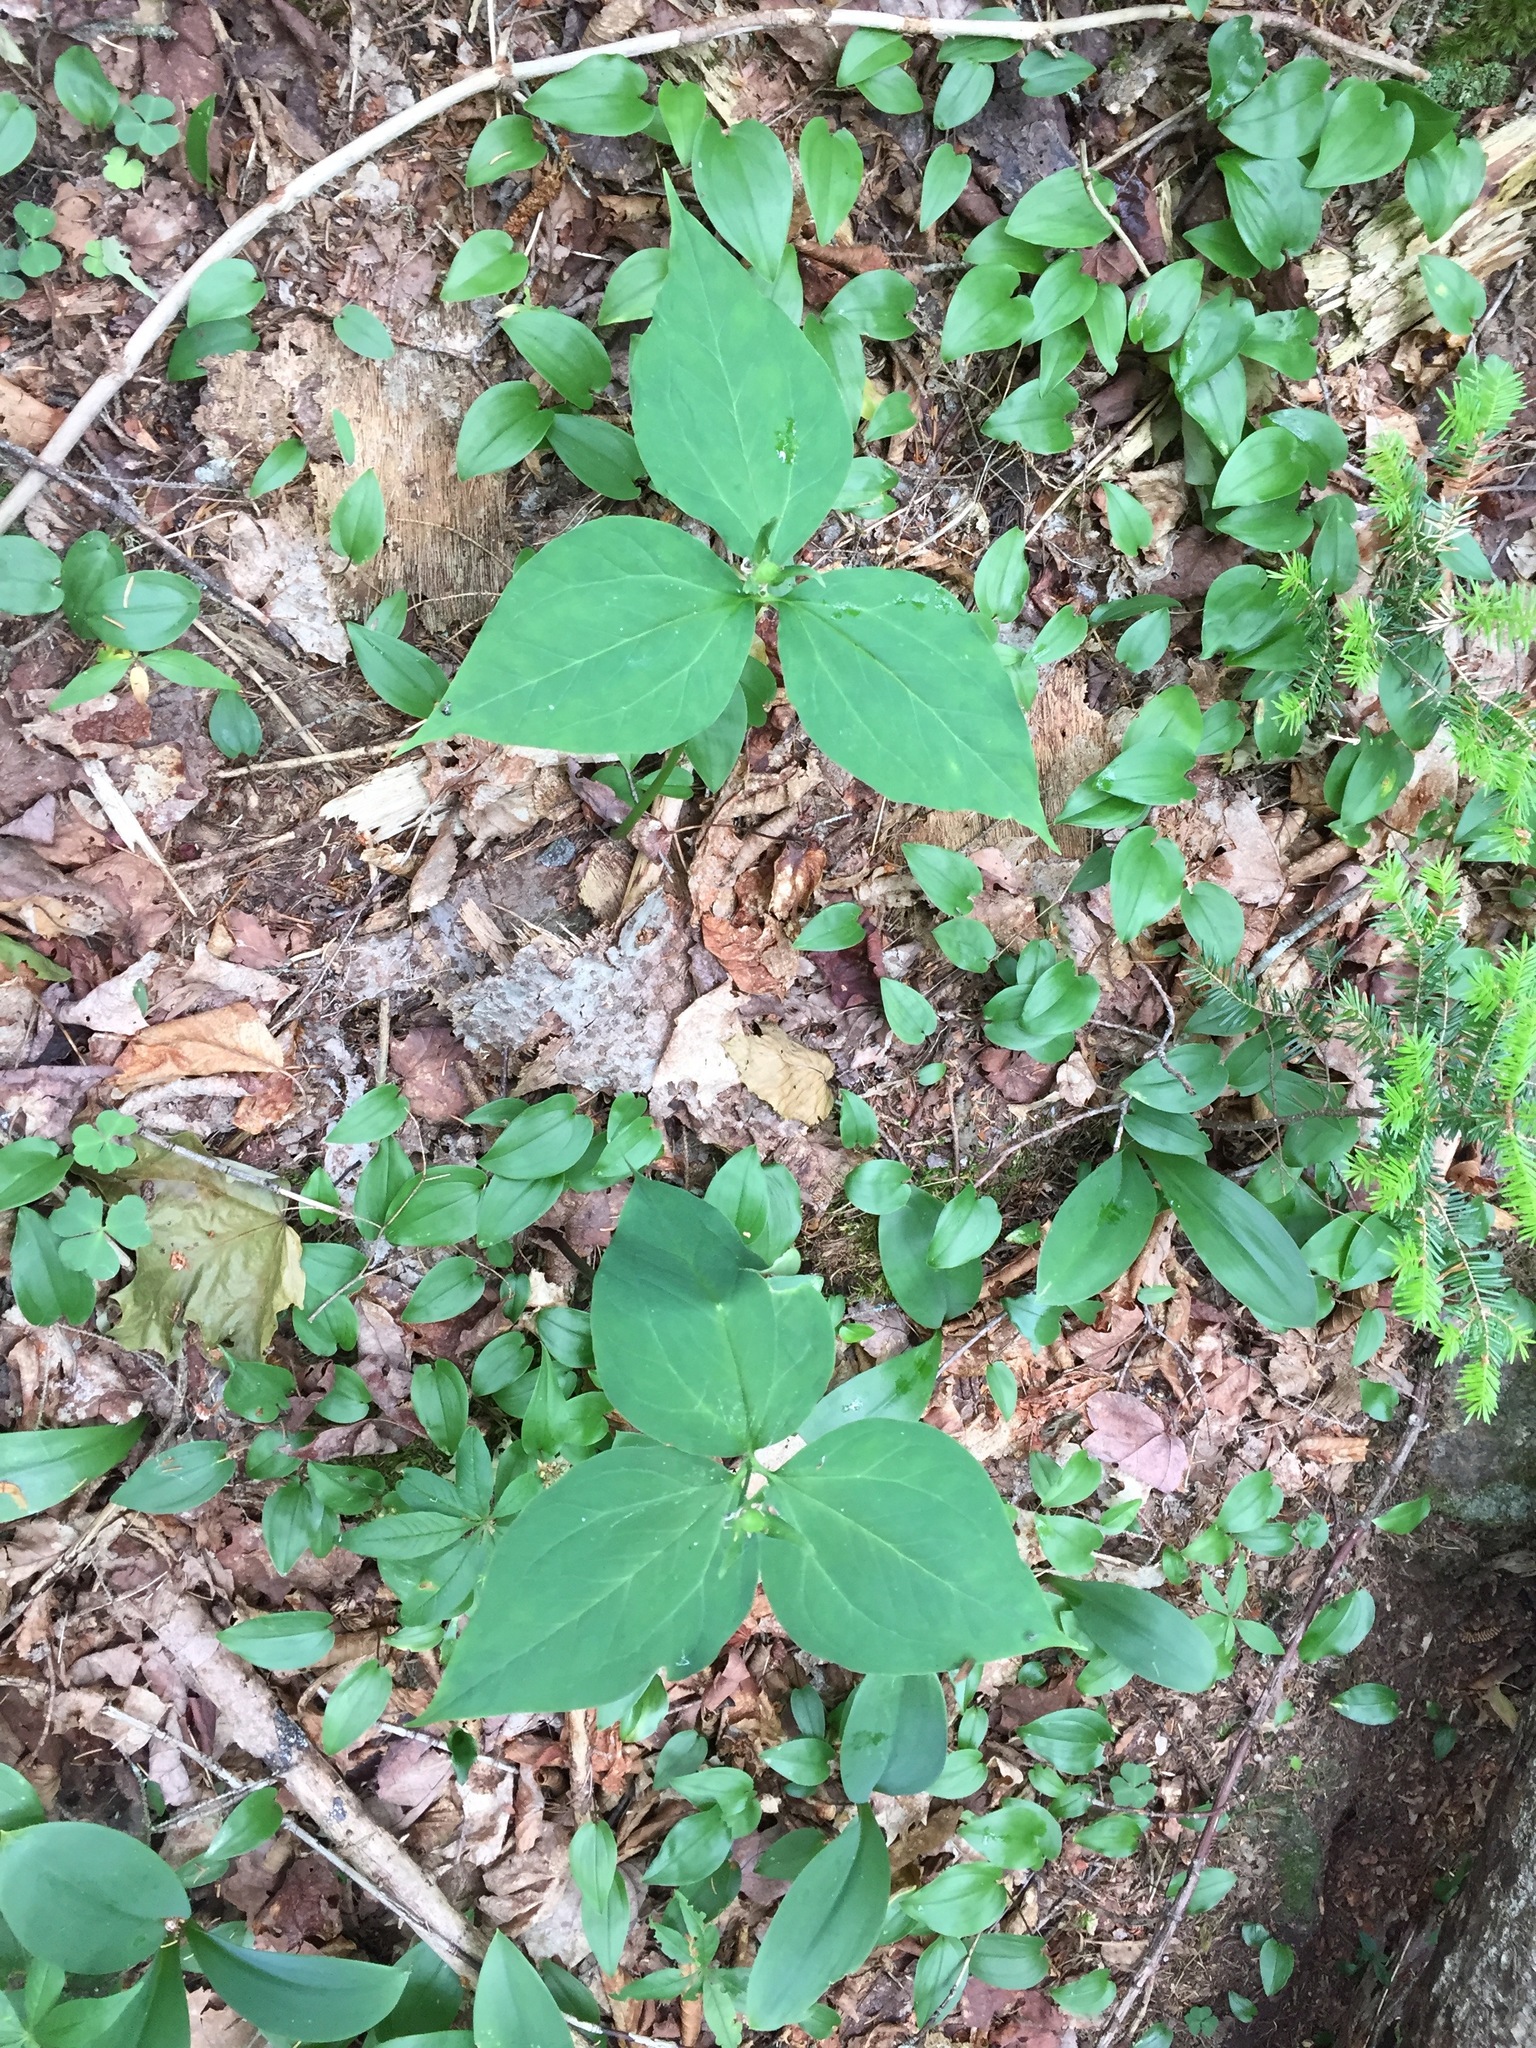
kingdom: Plantae
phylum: Tracheophyta
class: Liliopsida
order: Liliales
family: Melanthiaceae
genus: Trillium
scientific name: Trillium undulatum
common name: Paint trillium
